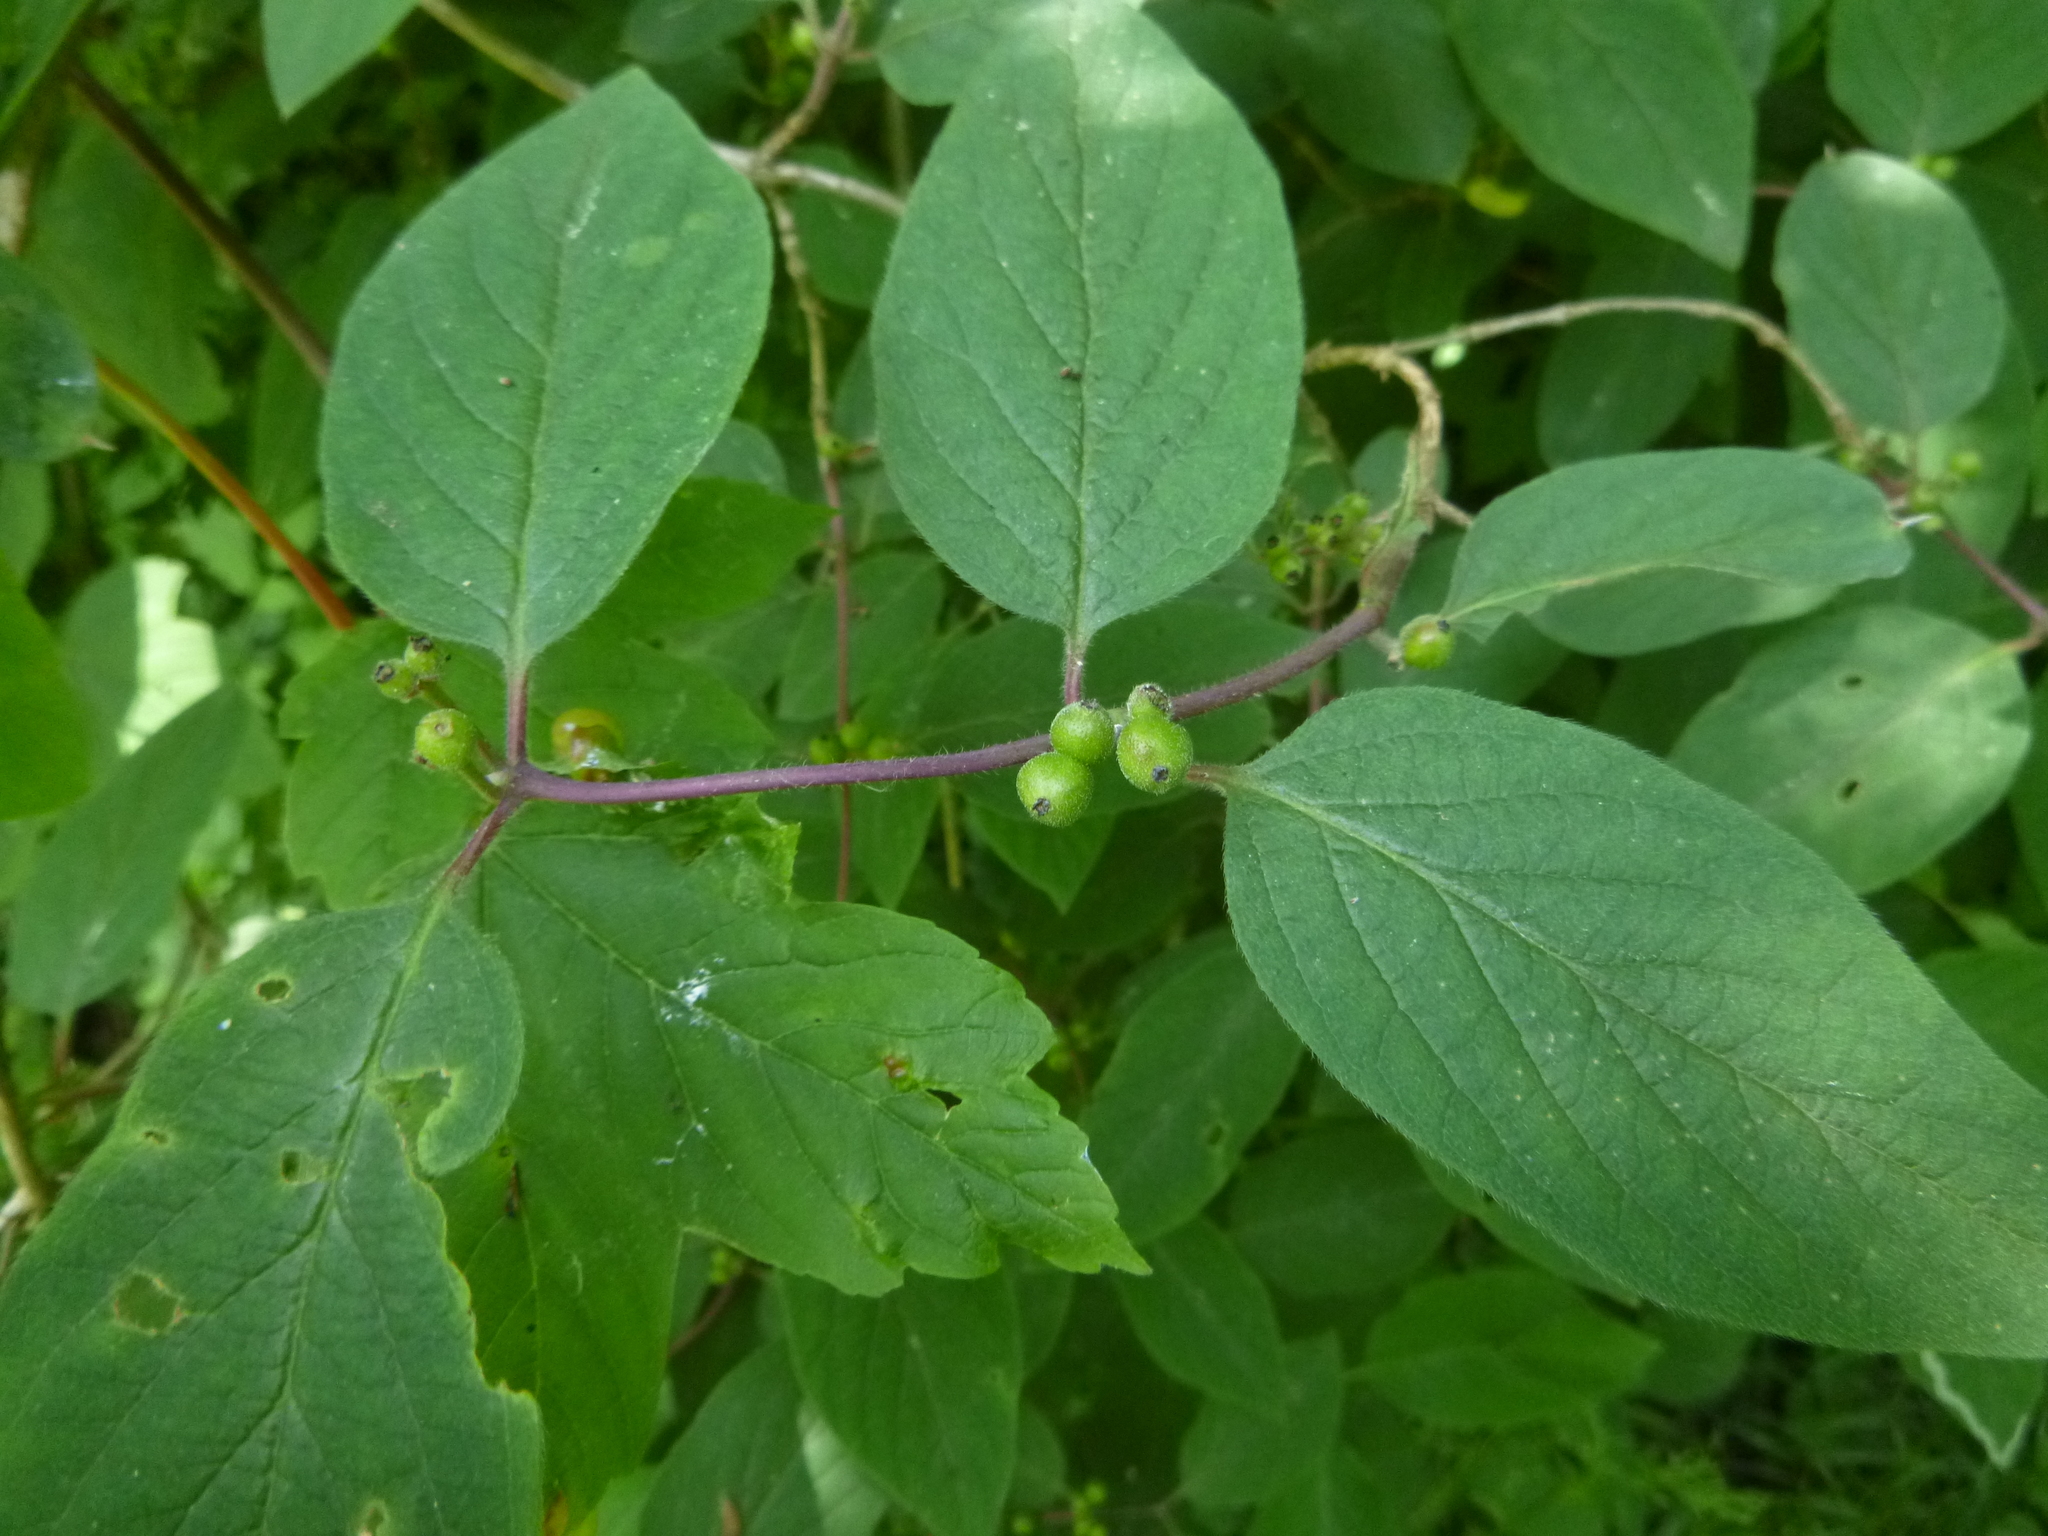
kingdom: Plantae
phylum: Tracheophyta
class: Magnoliopsida
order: Dipsacales
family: Caprifoliaceae
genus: Lonicera
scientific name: Lonicera xylosteum
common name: Fly honeysuckle
